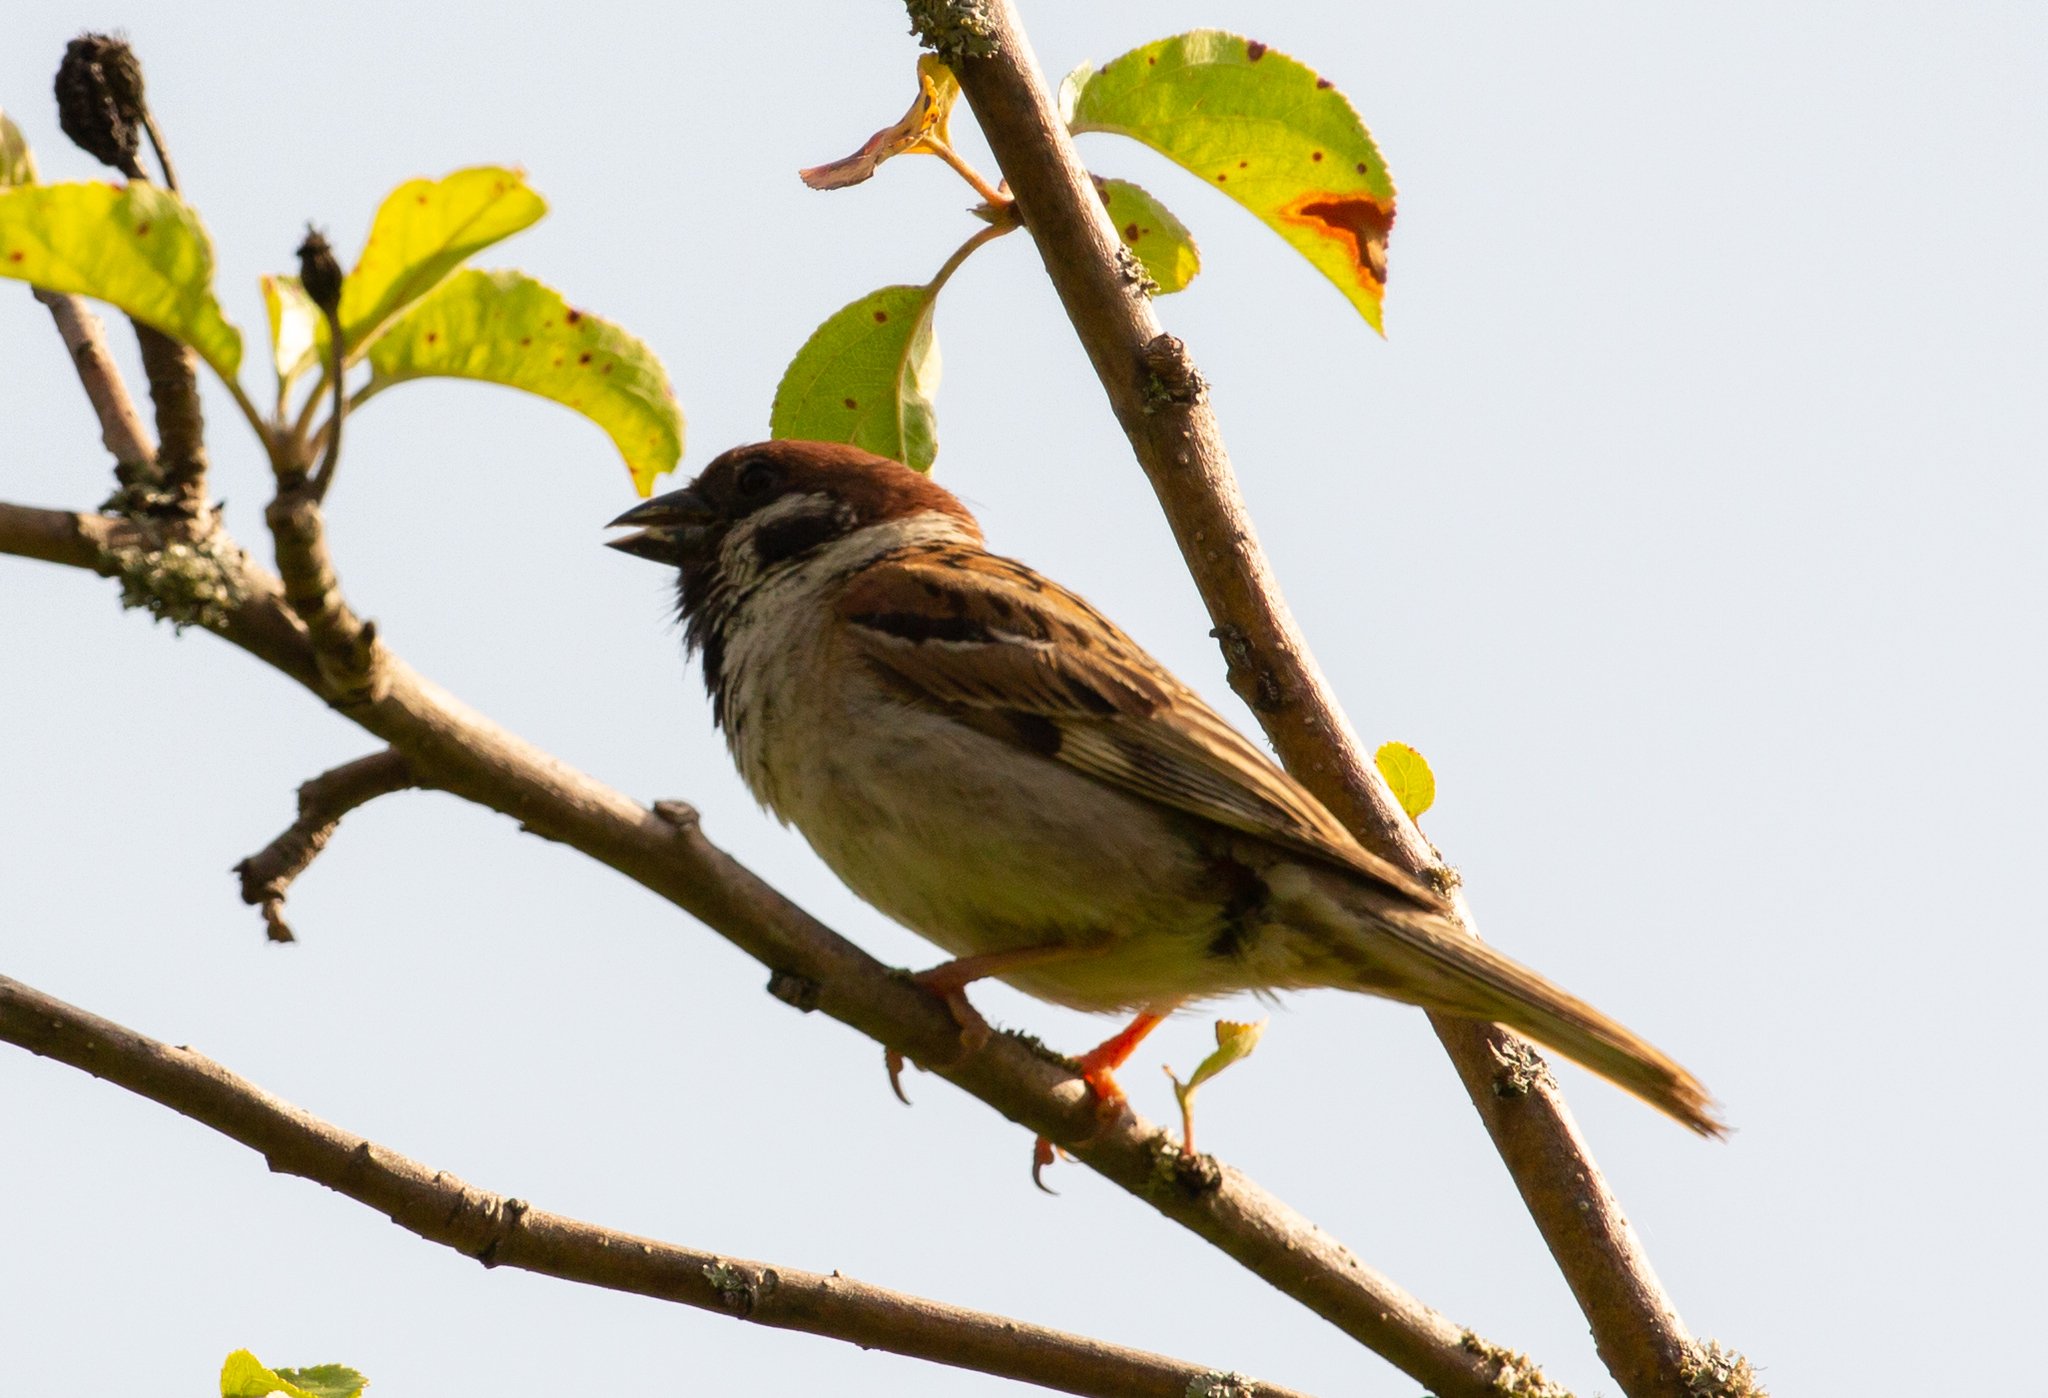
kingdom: Animalia
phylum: Chordata
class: Aves
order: Passeriformes
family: Passeridae
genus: Passer
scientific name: Passer montanus
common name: Eurasian tree sparrow
